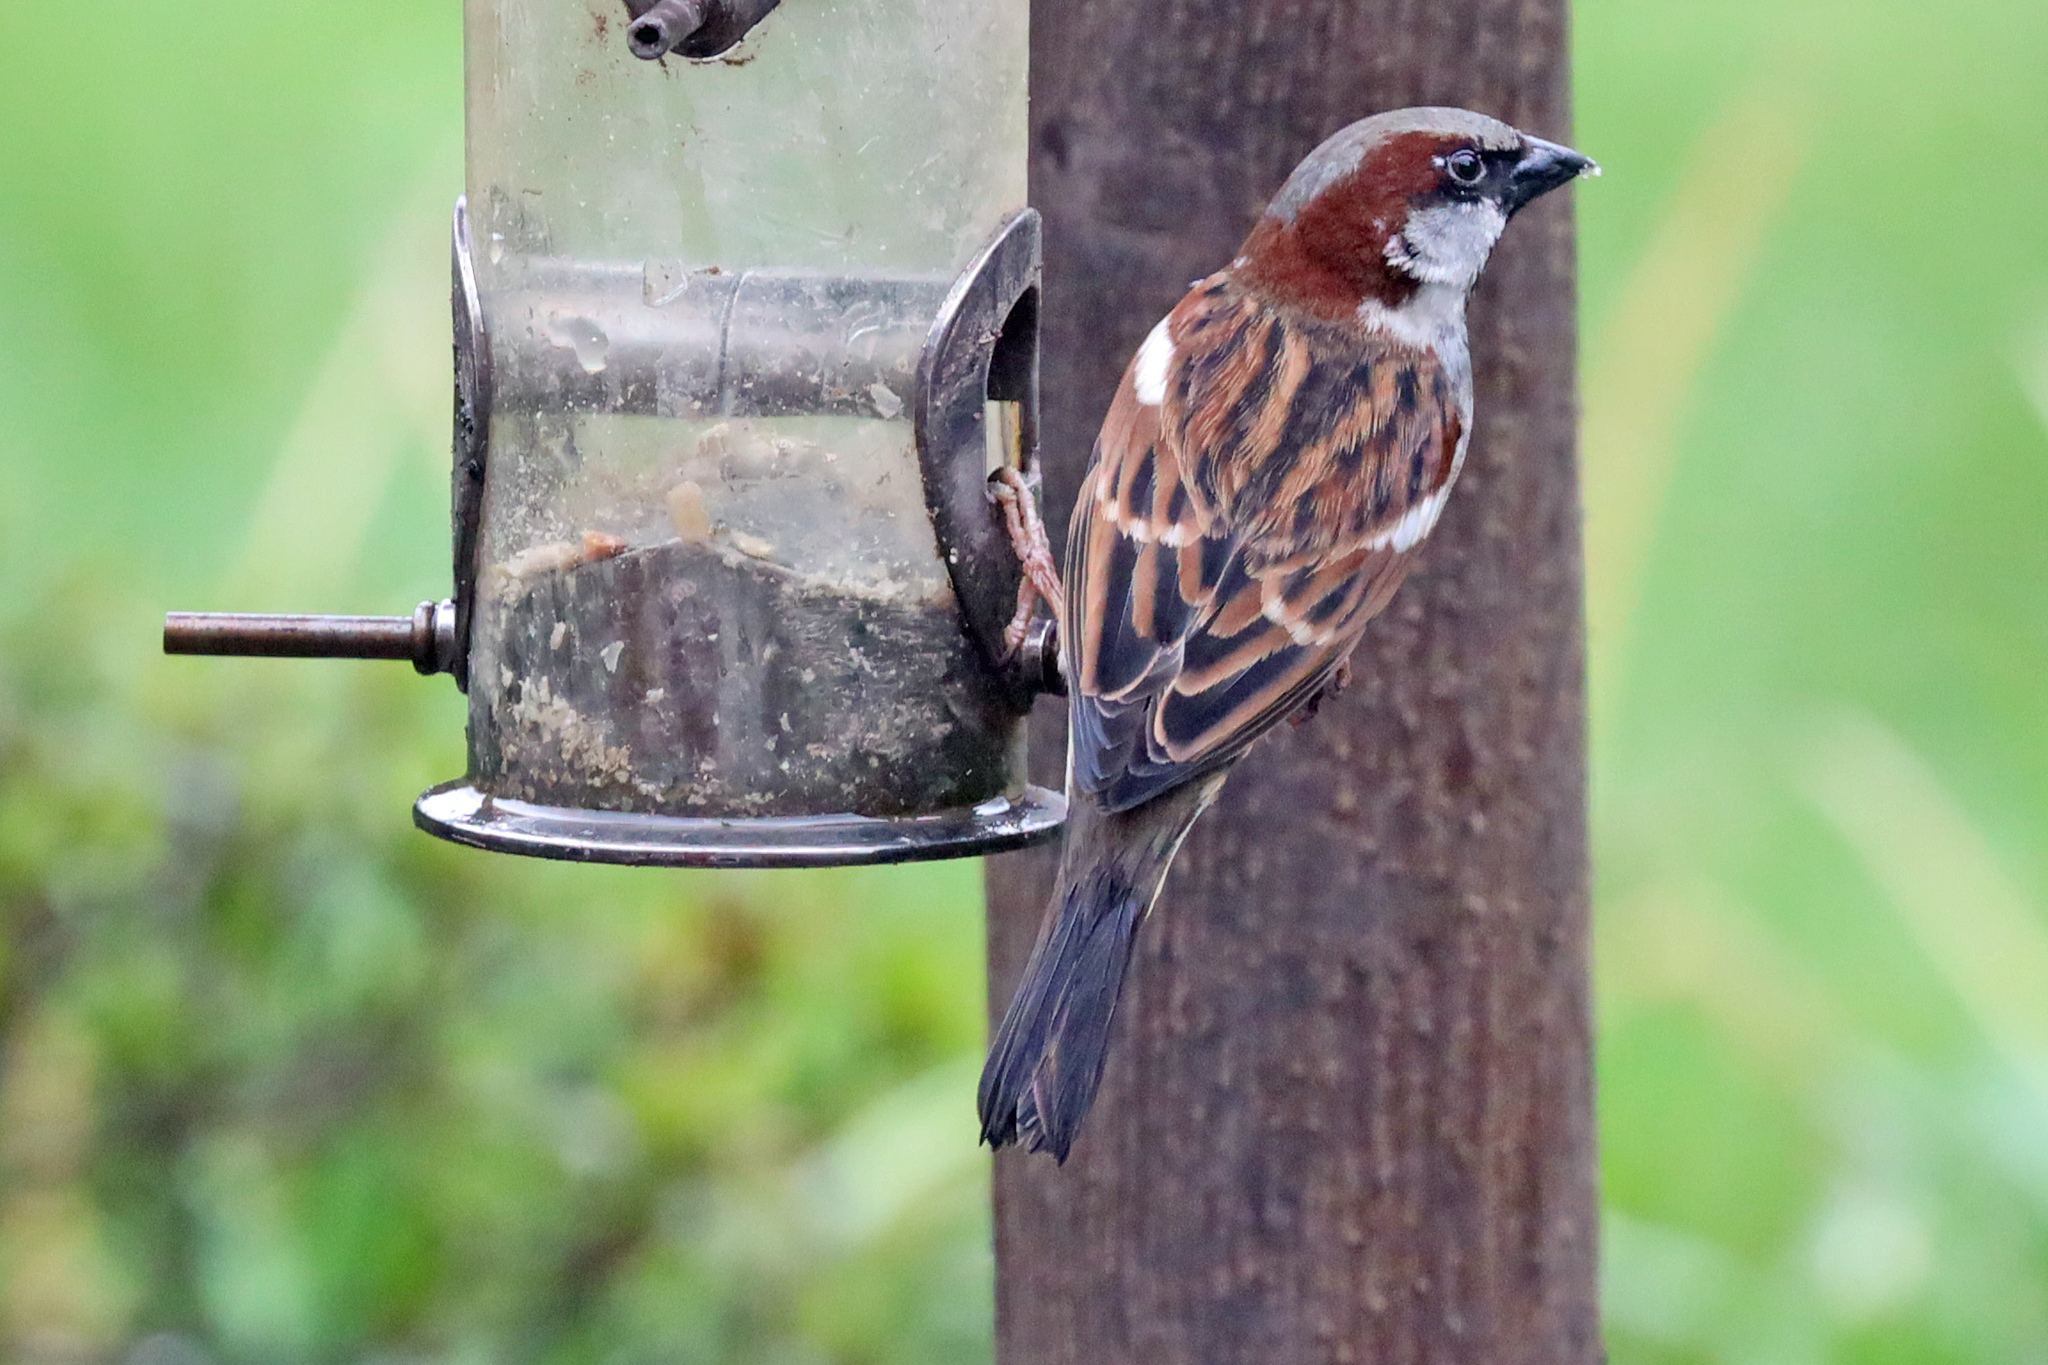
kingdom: Animalia
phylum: Chordata
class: Aves
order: Passeriformes
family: Passeridae
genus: Passer
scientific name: Passer domesticus
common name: House sparrow
